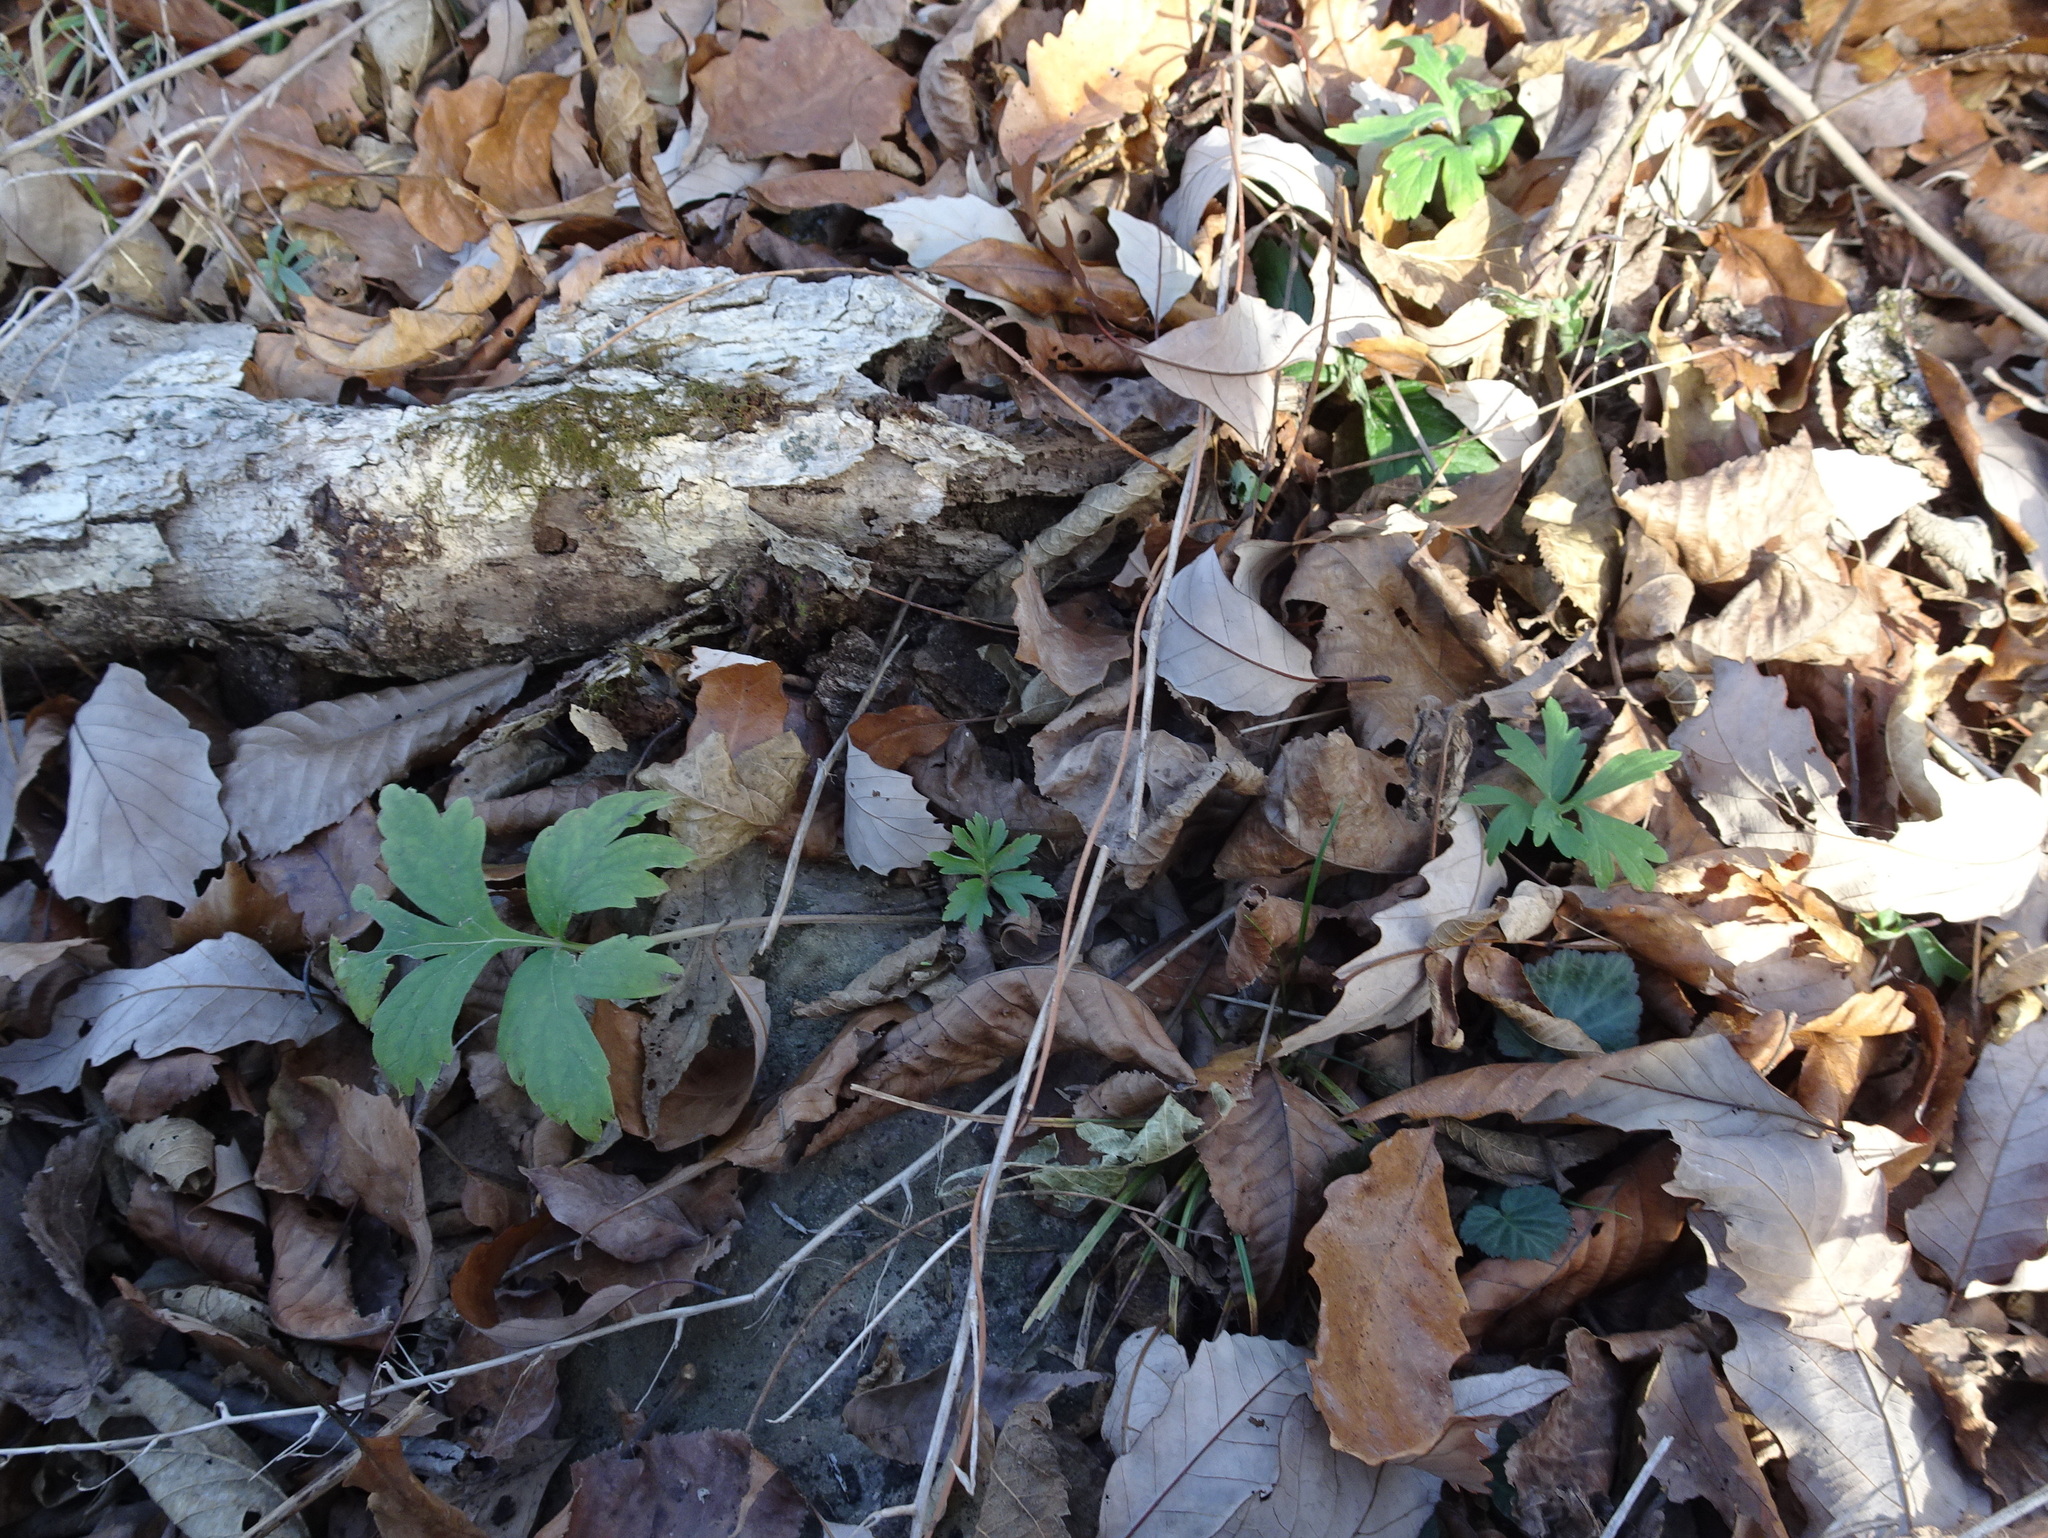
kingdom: Plantae
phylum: Tracheophyta
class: Magnoliopsida
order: Boraginales
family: Hydrophyllaceae
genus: Hydrophyllum
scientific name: Hydrophyllum virginianum
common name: Virginia waterleaf
